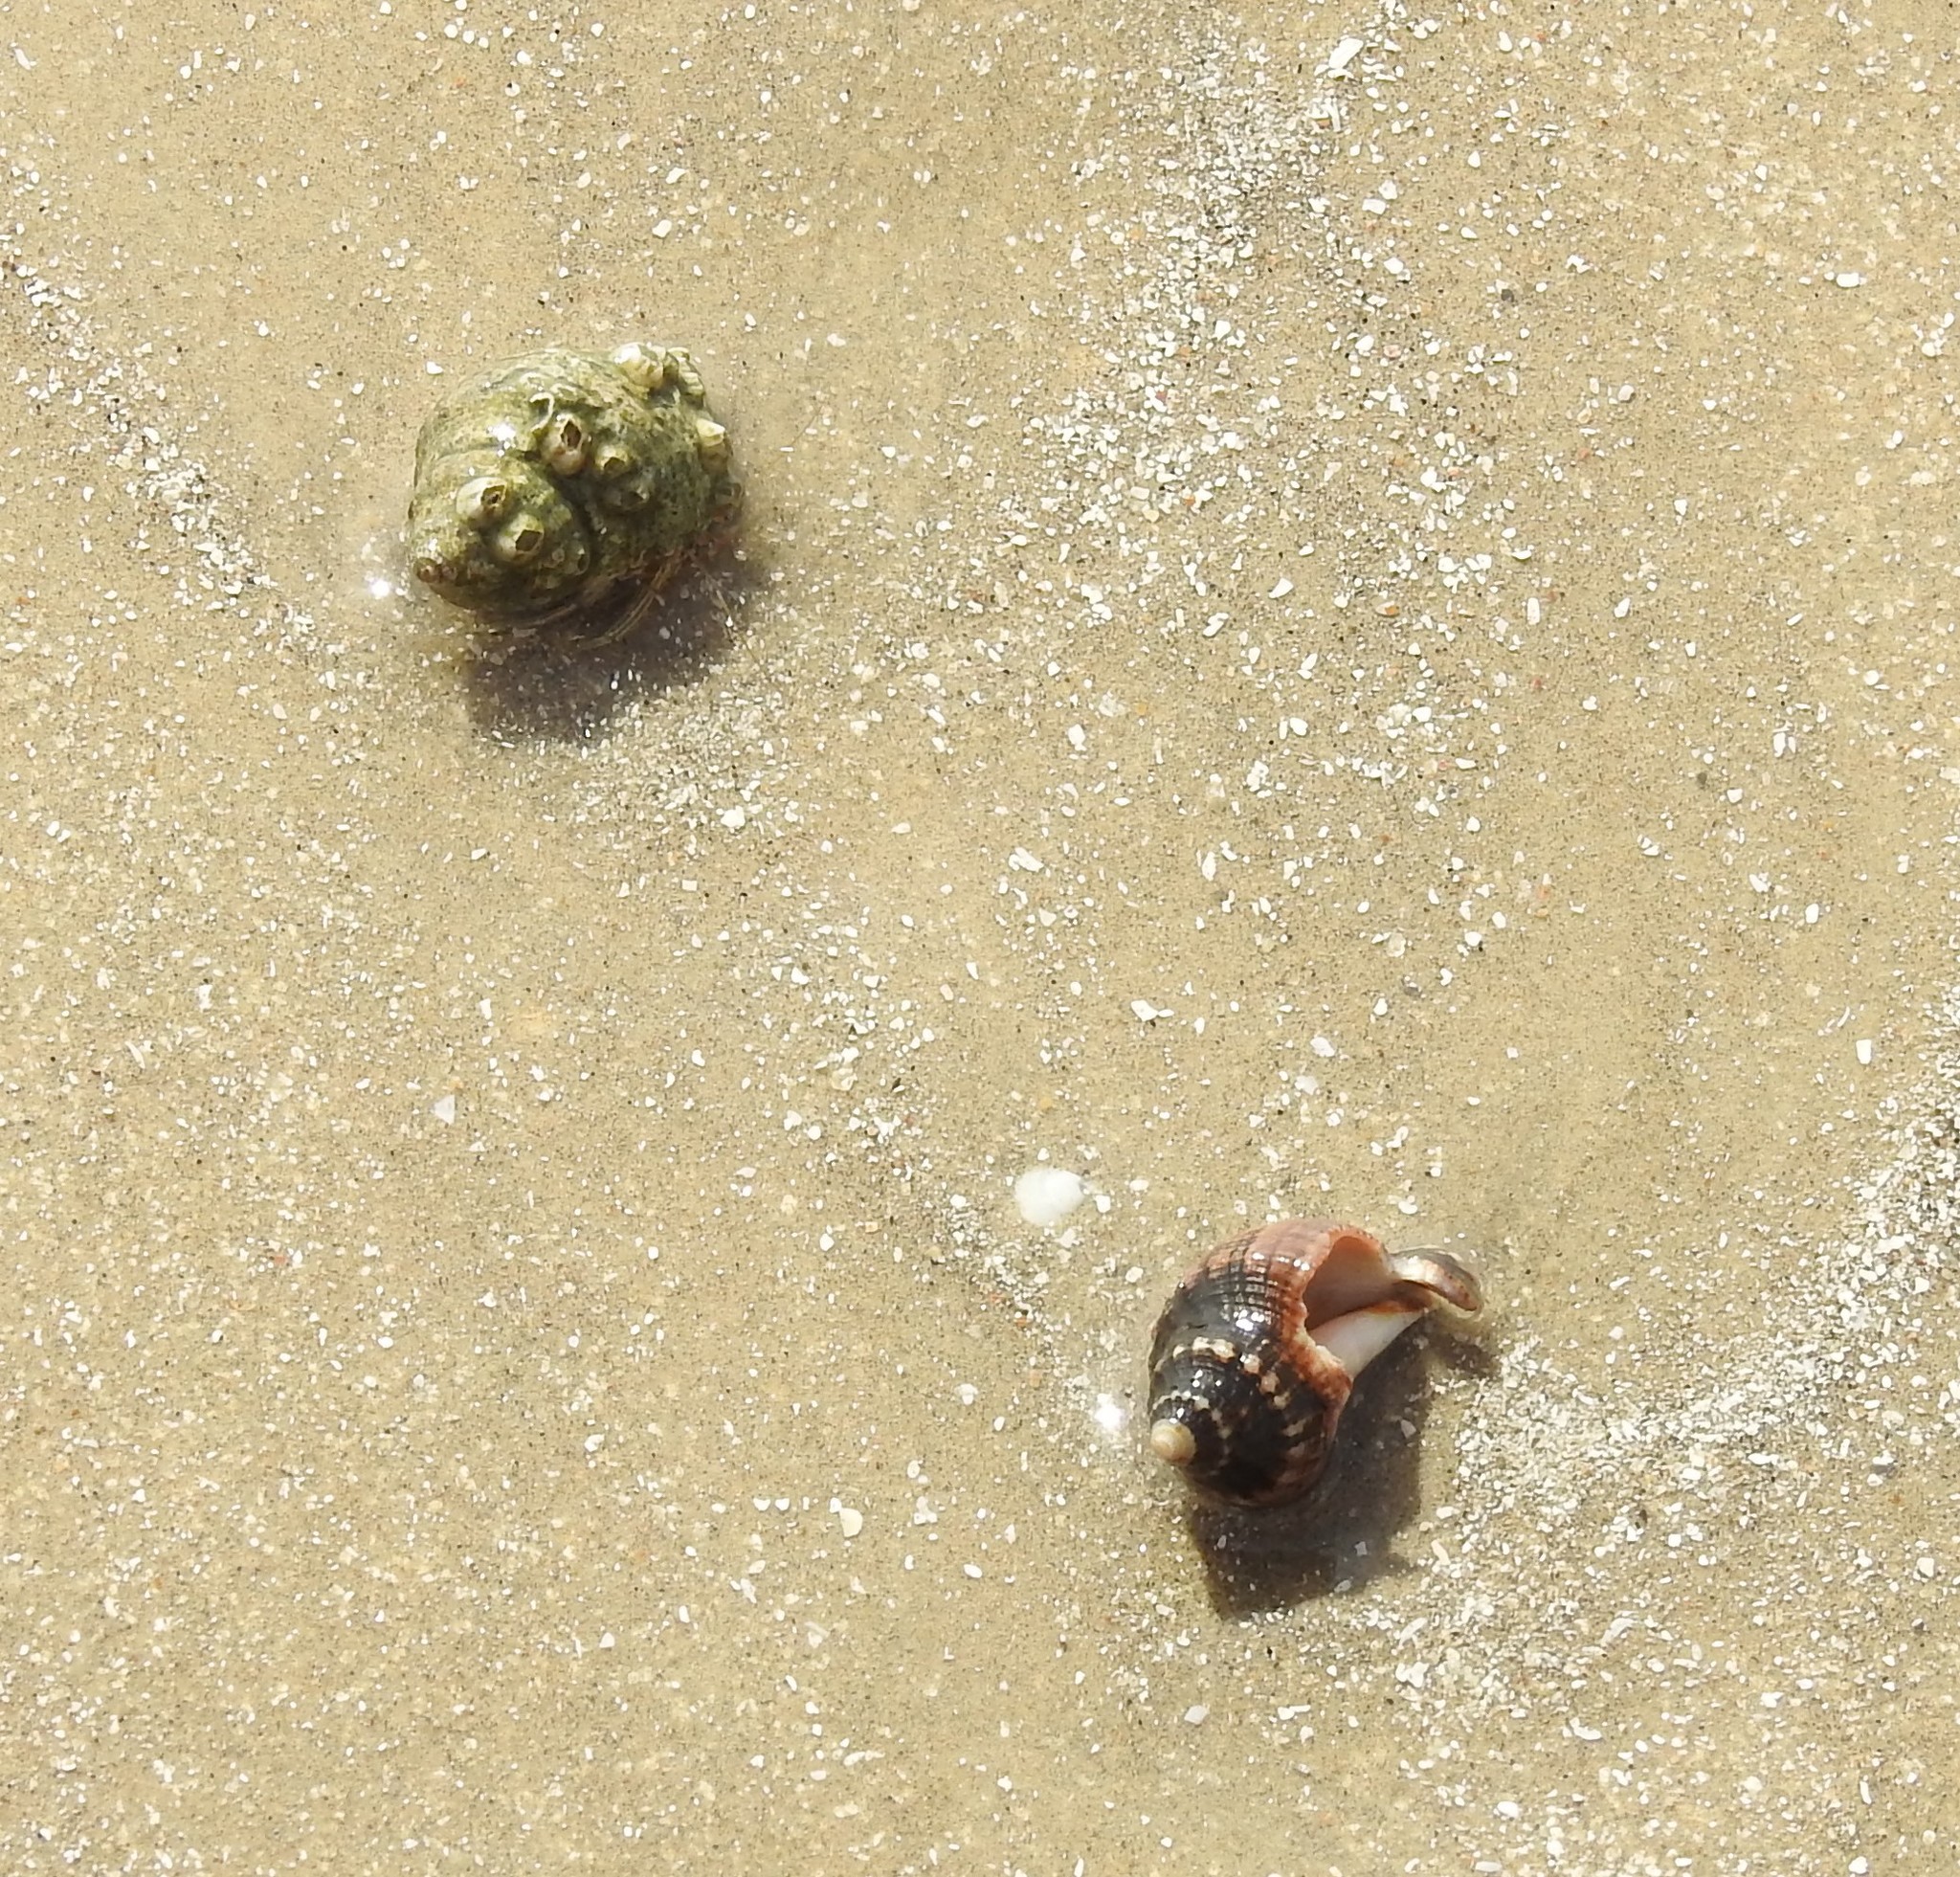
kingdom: Animalia
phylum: Arthropoda
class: Malacostraca
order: Decapoda
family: Diogenidae
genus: Clibanarius
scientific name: Clibanarius vittatus
